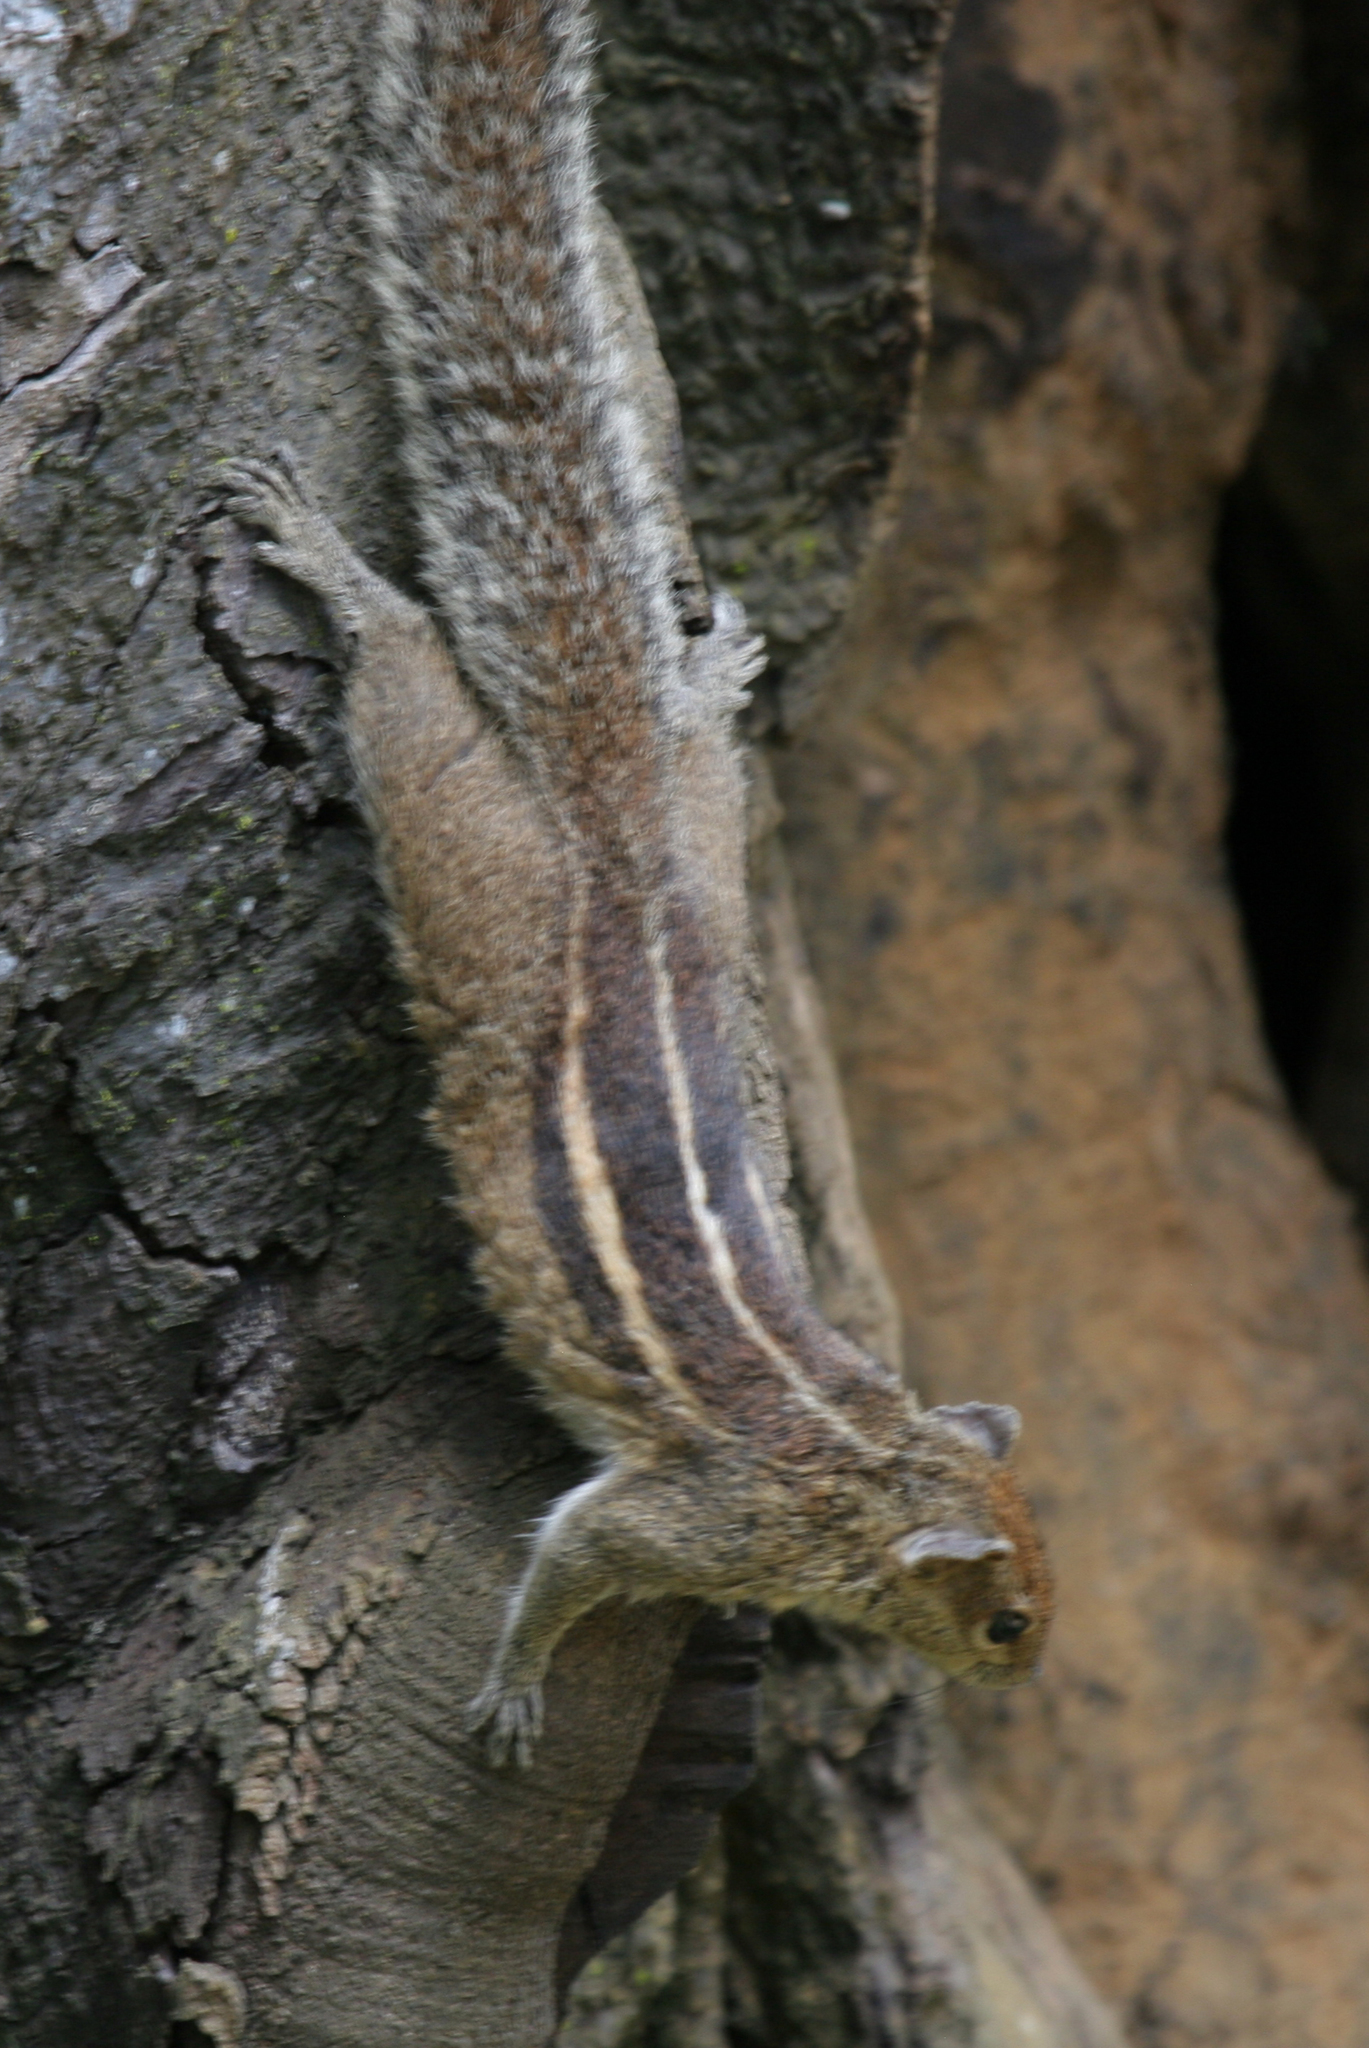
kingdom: Animalia
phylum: Chordata
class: Mammalia
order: Rodentia
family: Sciuridae
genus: Funambulus
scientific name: Funambulus palmarum
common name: Indian palm squirrel
